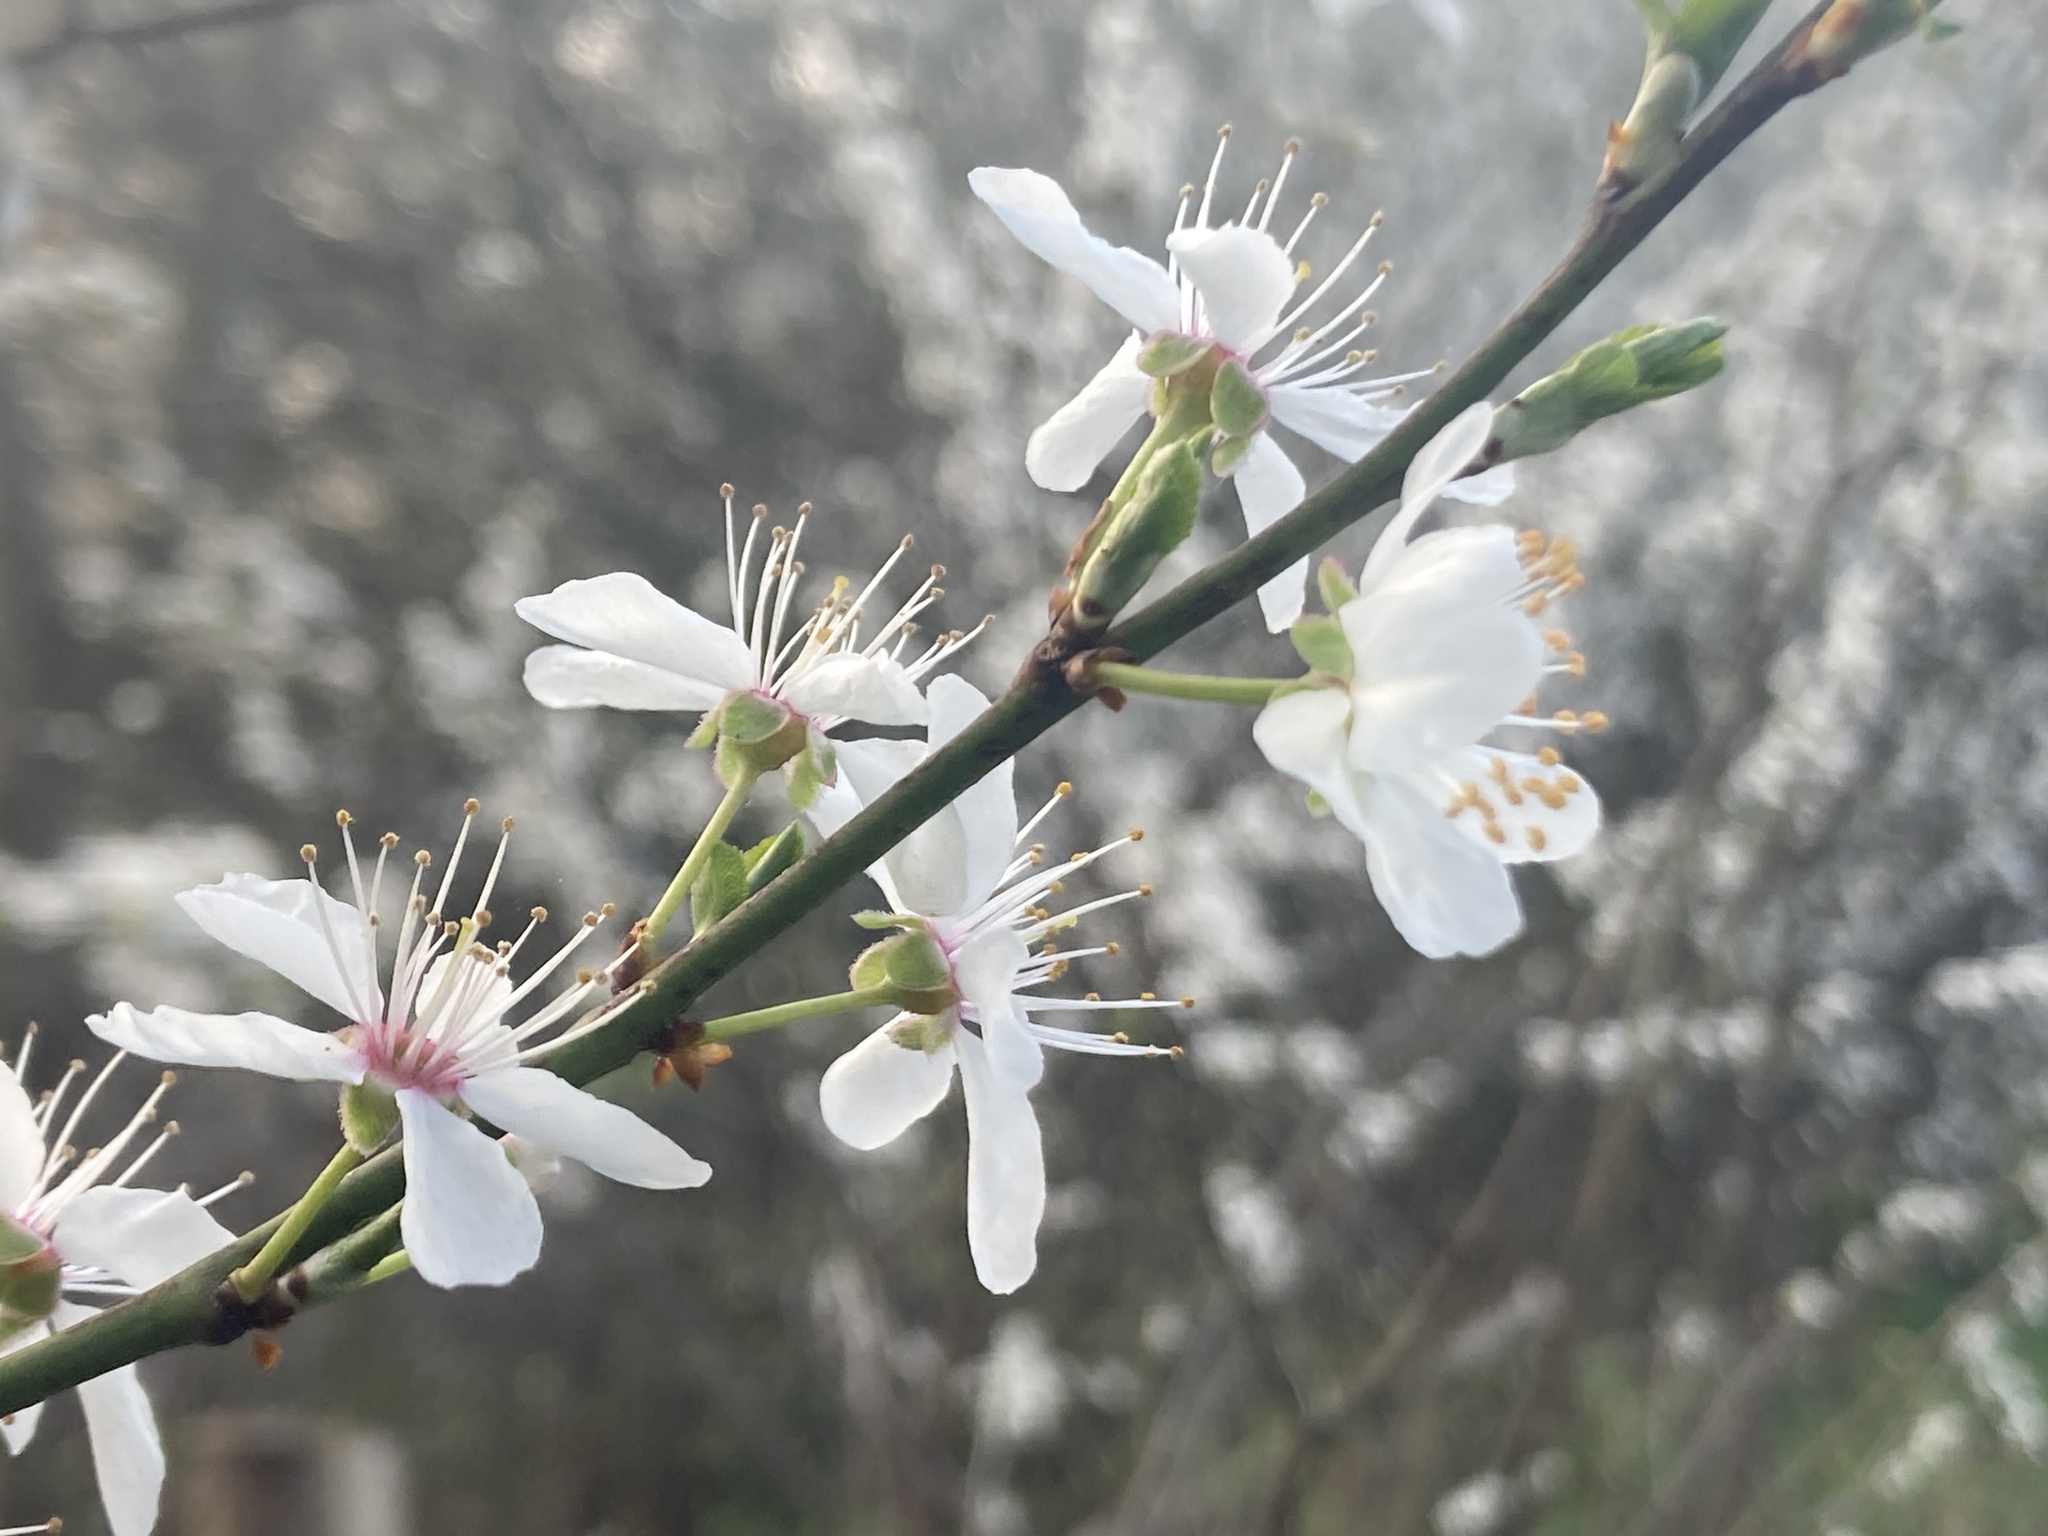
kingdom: Plantae
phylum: Tracheophyta
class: Magnoliopsida
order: Rosales
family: Rosaceae
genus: Prunus
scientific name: Prunus cerasifera
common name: Cherry plum
